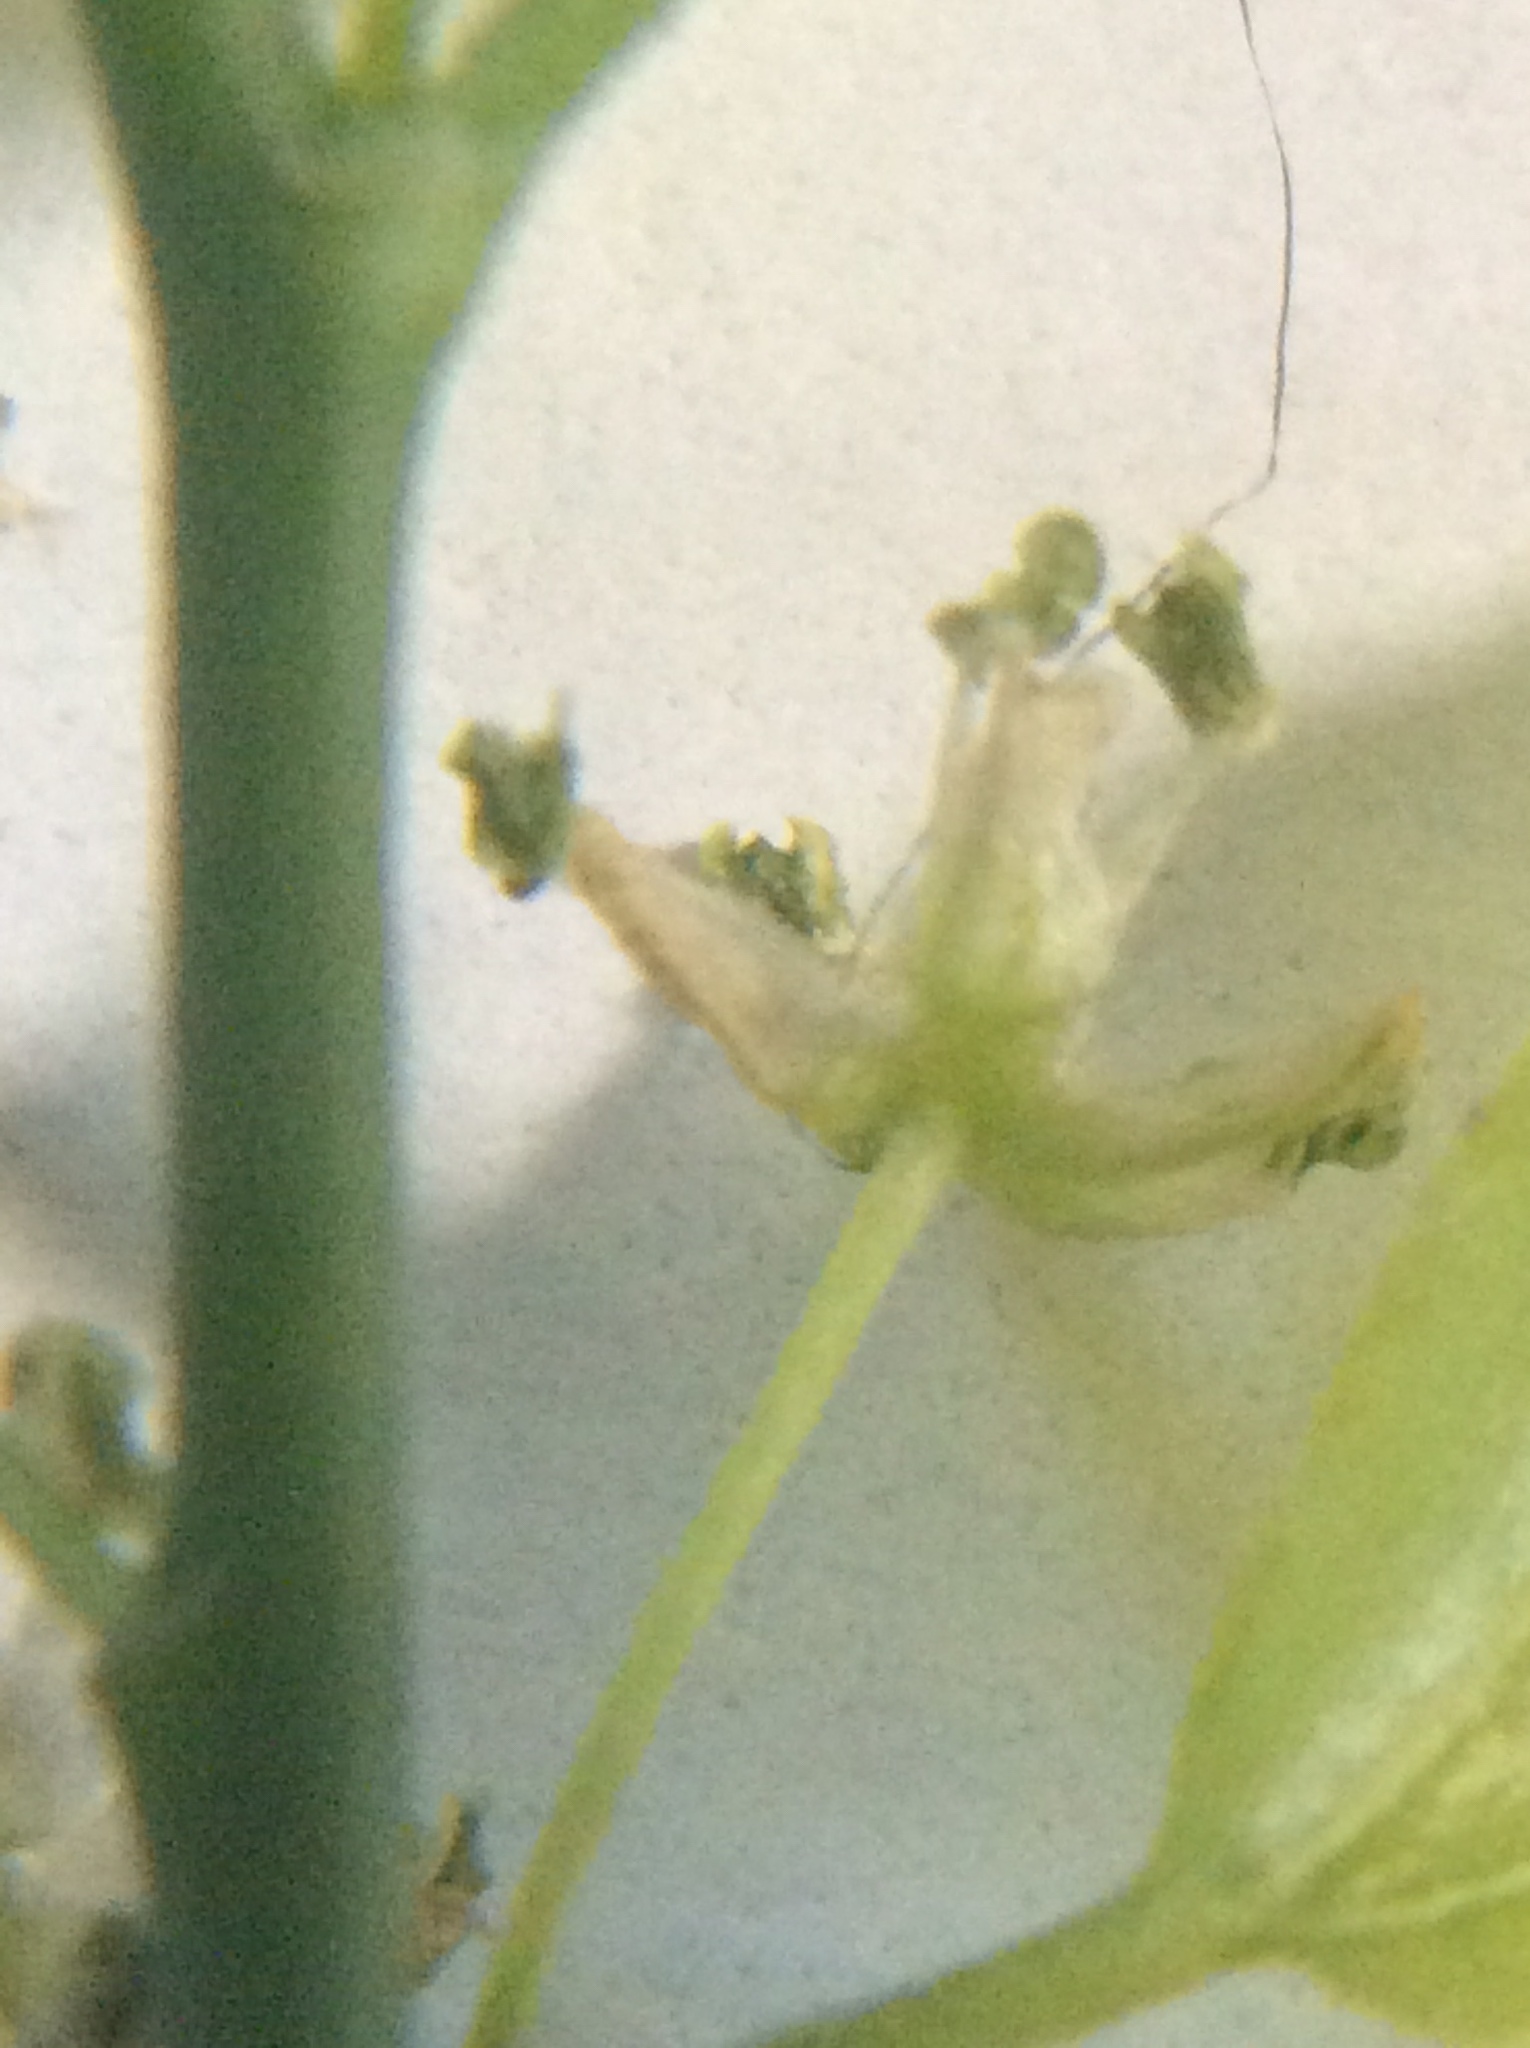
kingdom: Plantae
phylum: Tracheophyta
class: Magnoliopsida
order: Rosales
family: Cannabaceae
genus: Celtis
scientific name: Celtis laevigata
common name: Sugarberry
